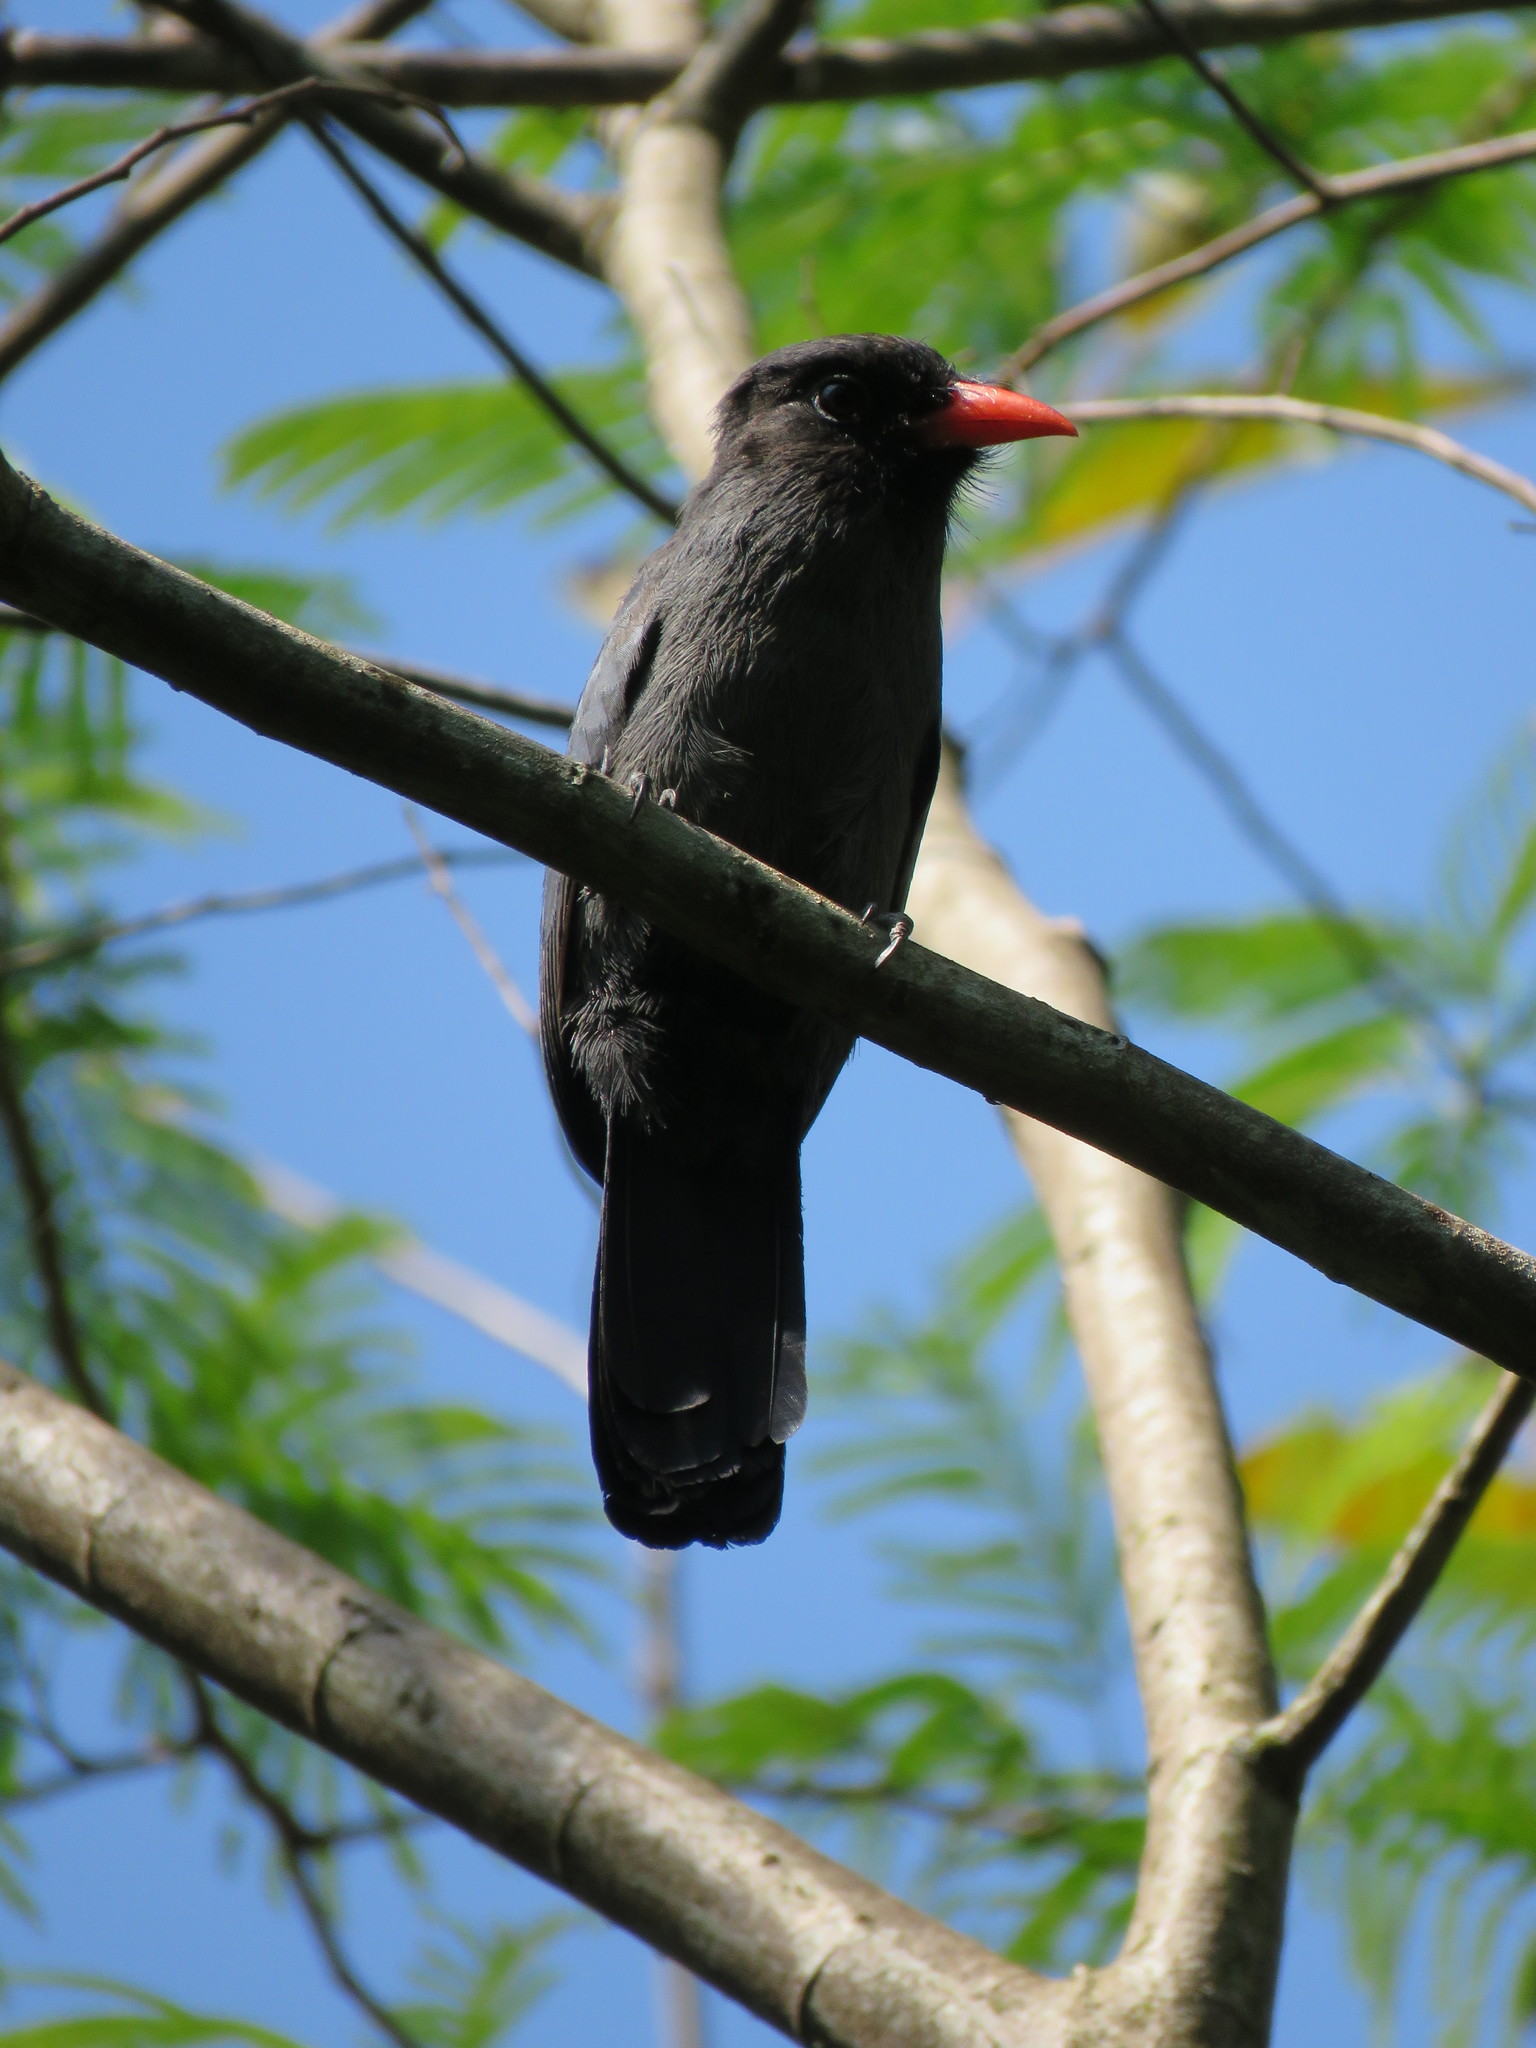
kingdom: Animalia
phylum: Chordata
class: Aves
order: Piciformes
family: Bucconidae
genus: Monasa
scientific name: Monasa nigrifrons
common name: Black-fronted nunbird
